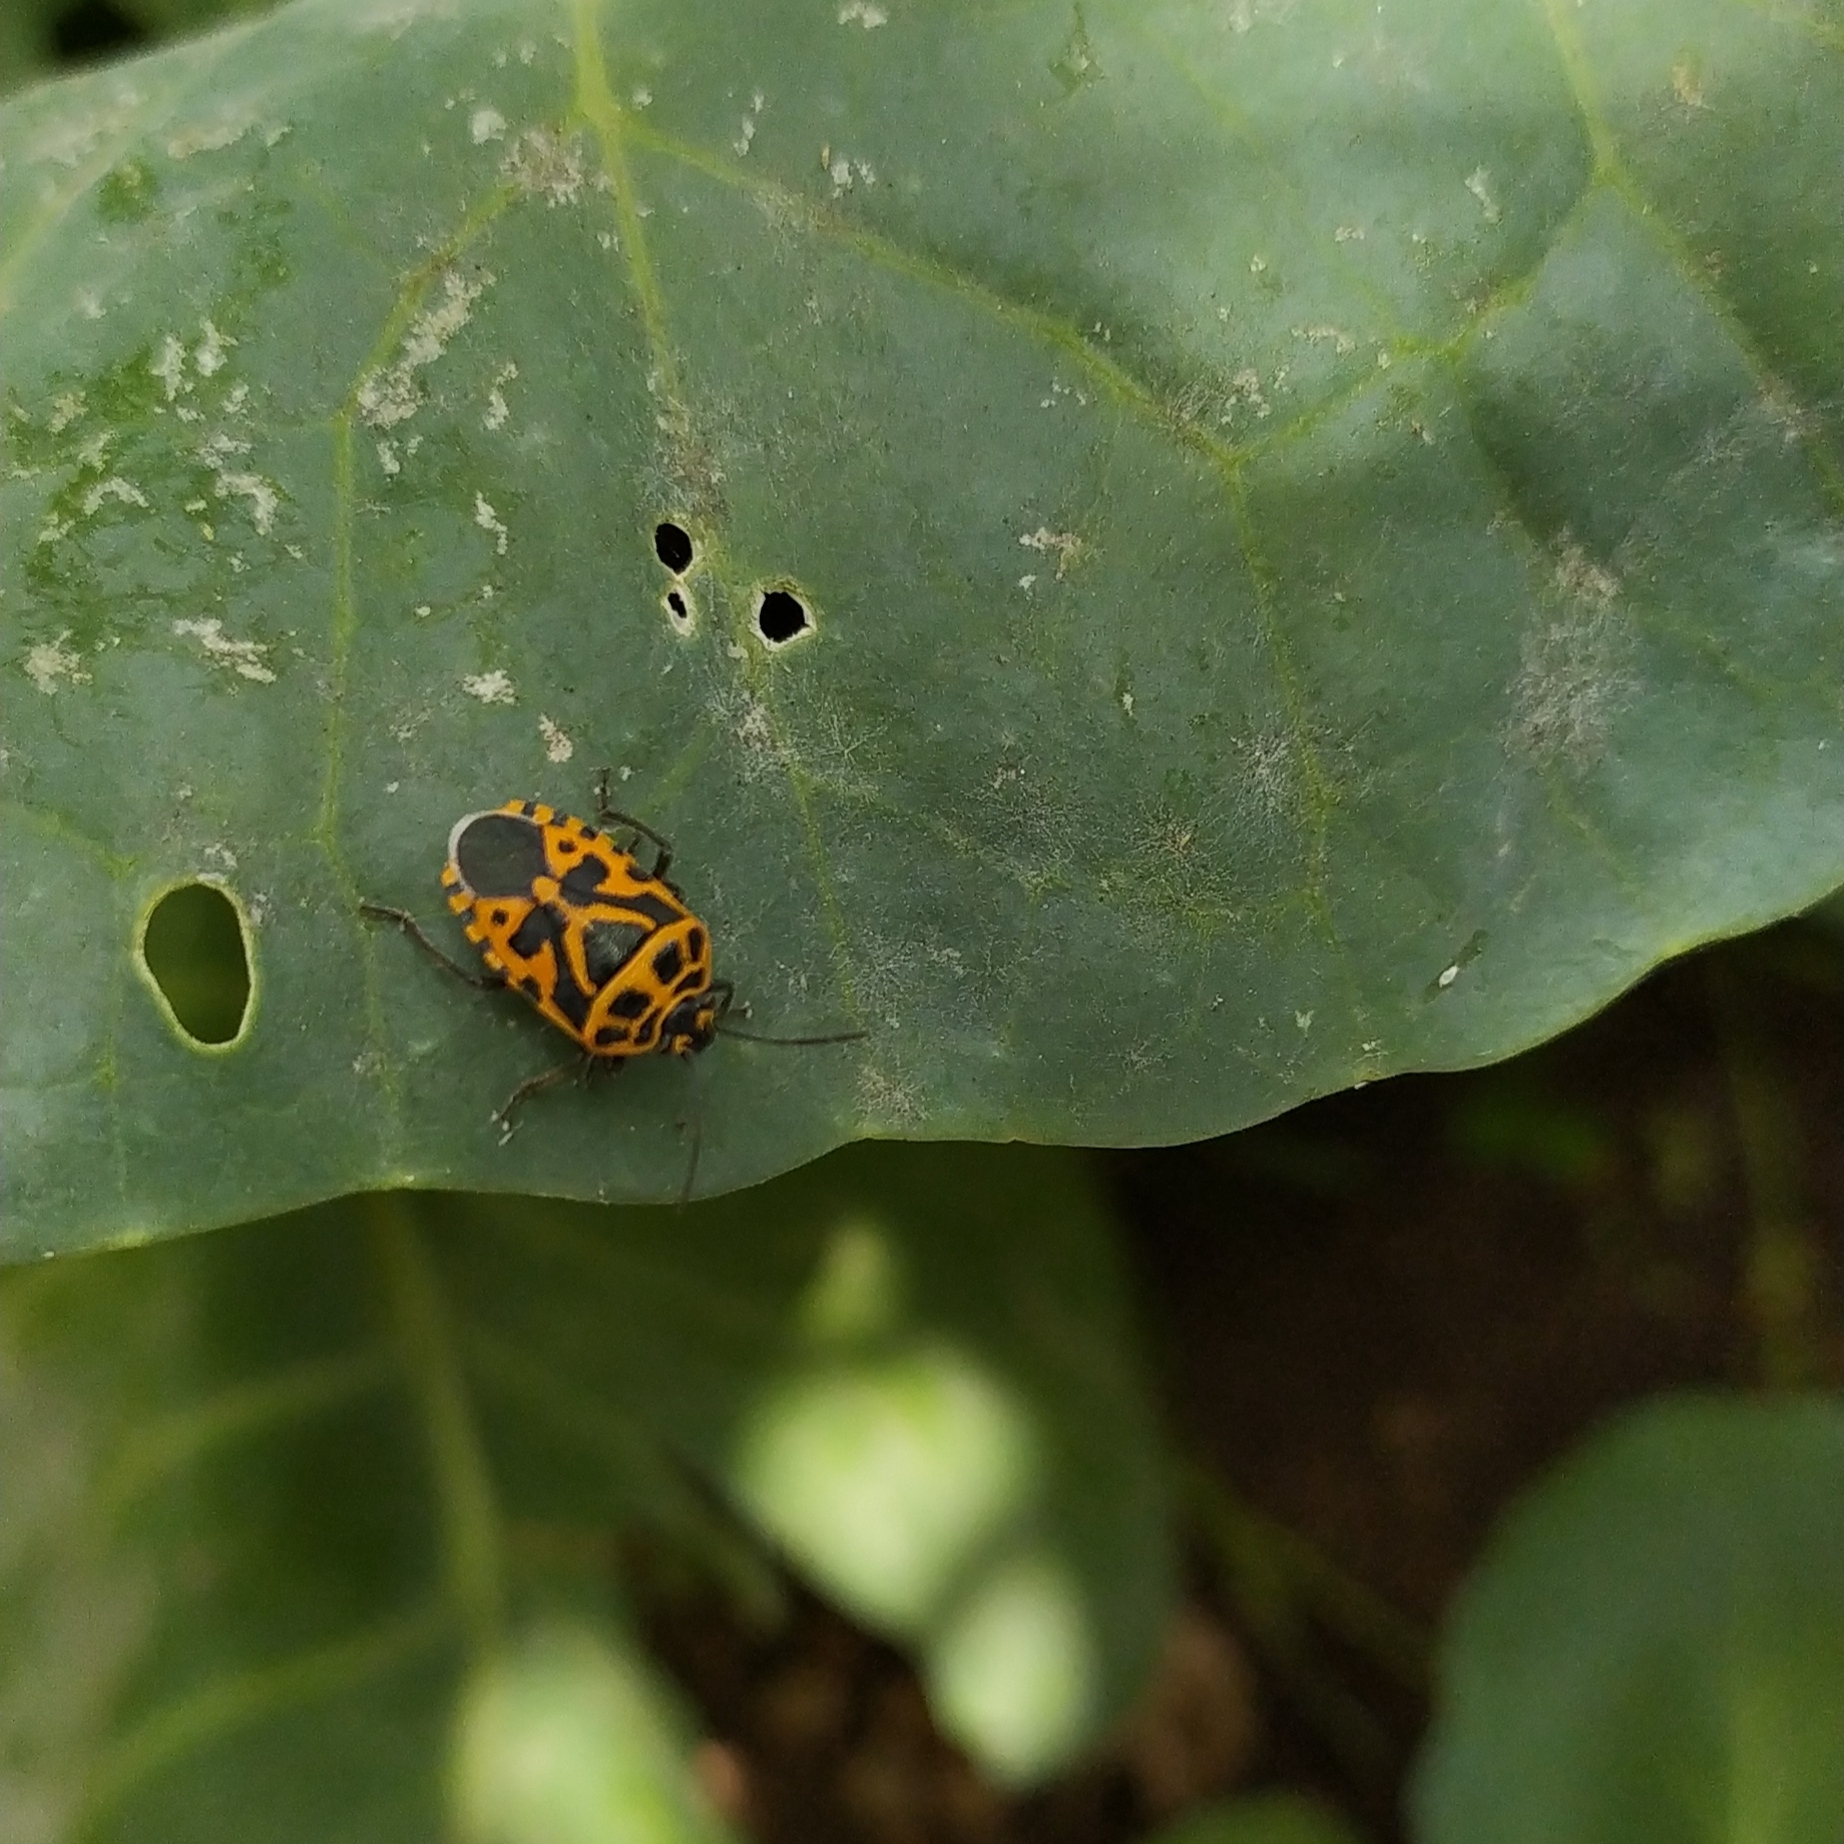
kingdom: Animalia
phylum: Arthropoda
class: Insecta
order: Hemiptera
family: Pentatomidae
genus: Eurydema
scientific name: Eurydema ventralis
